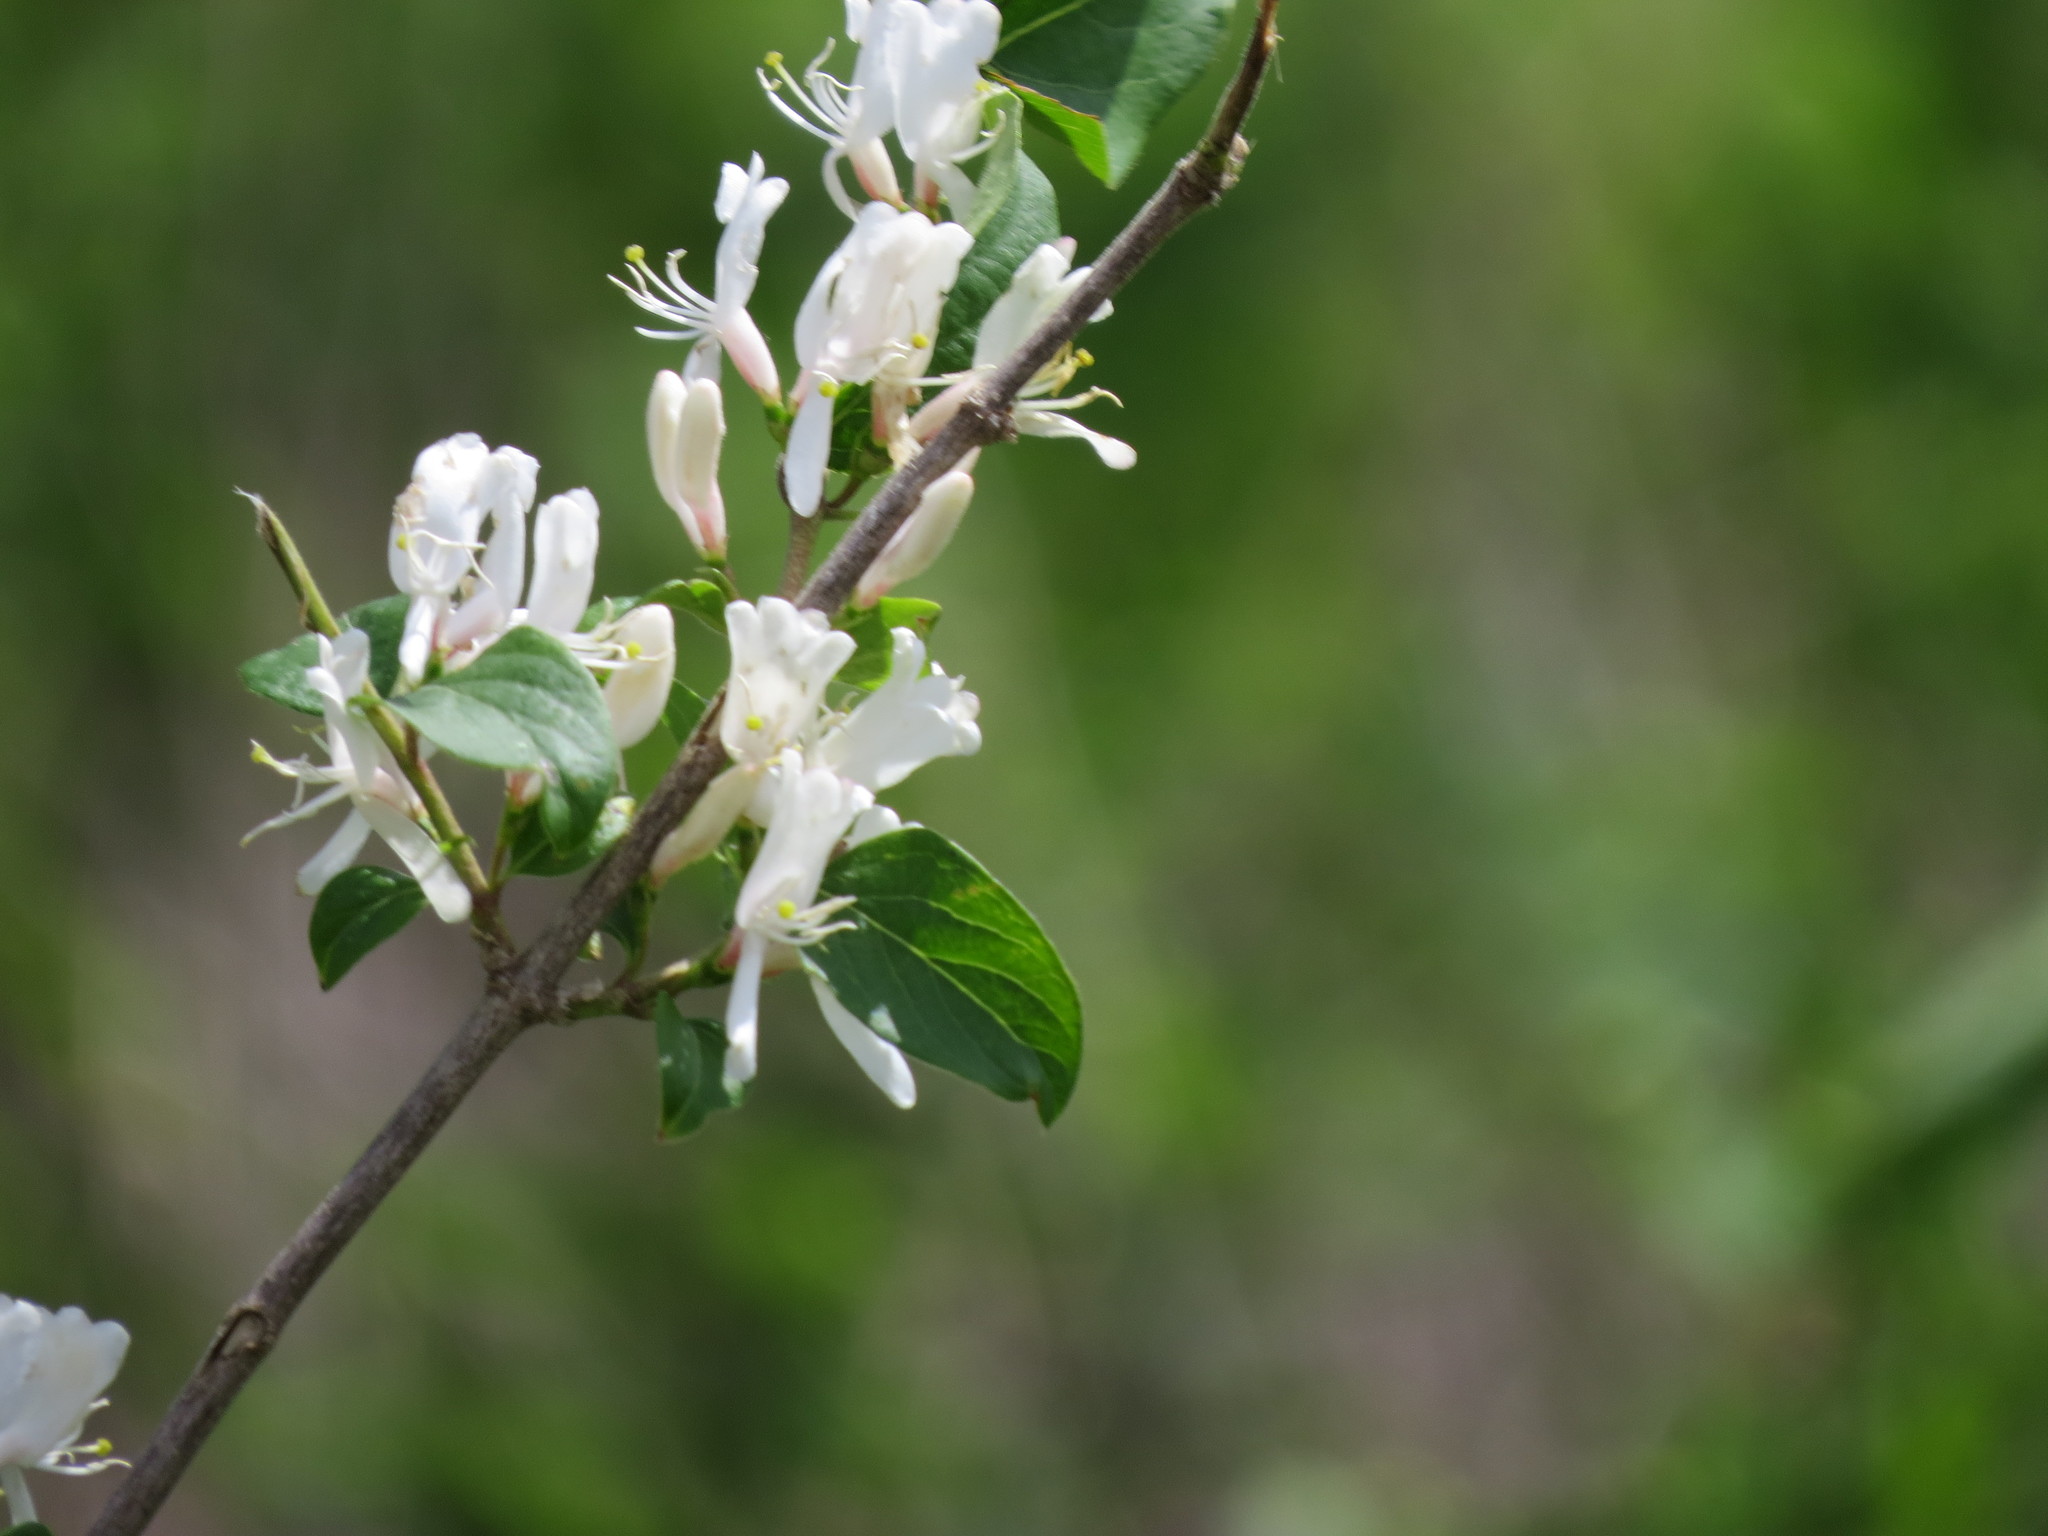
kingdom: Plantae
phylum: Tracheophyta
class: Magnoliopsida
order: Dipsacales
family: Caprifoliaceae
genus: Lonicera
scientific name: Lonicera maackii
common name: Amur honeysuckle
